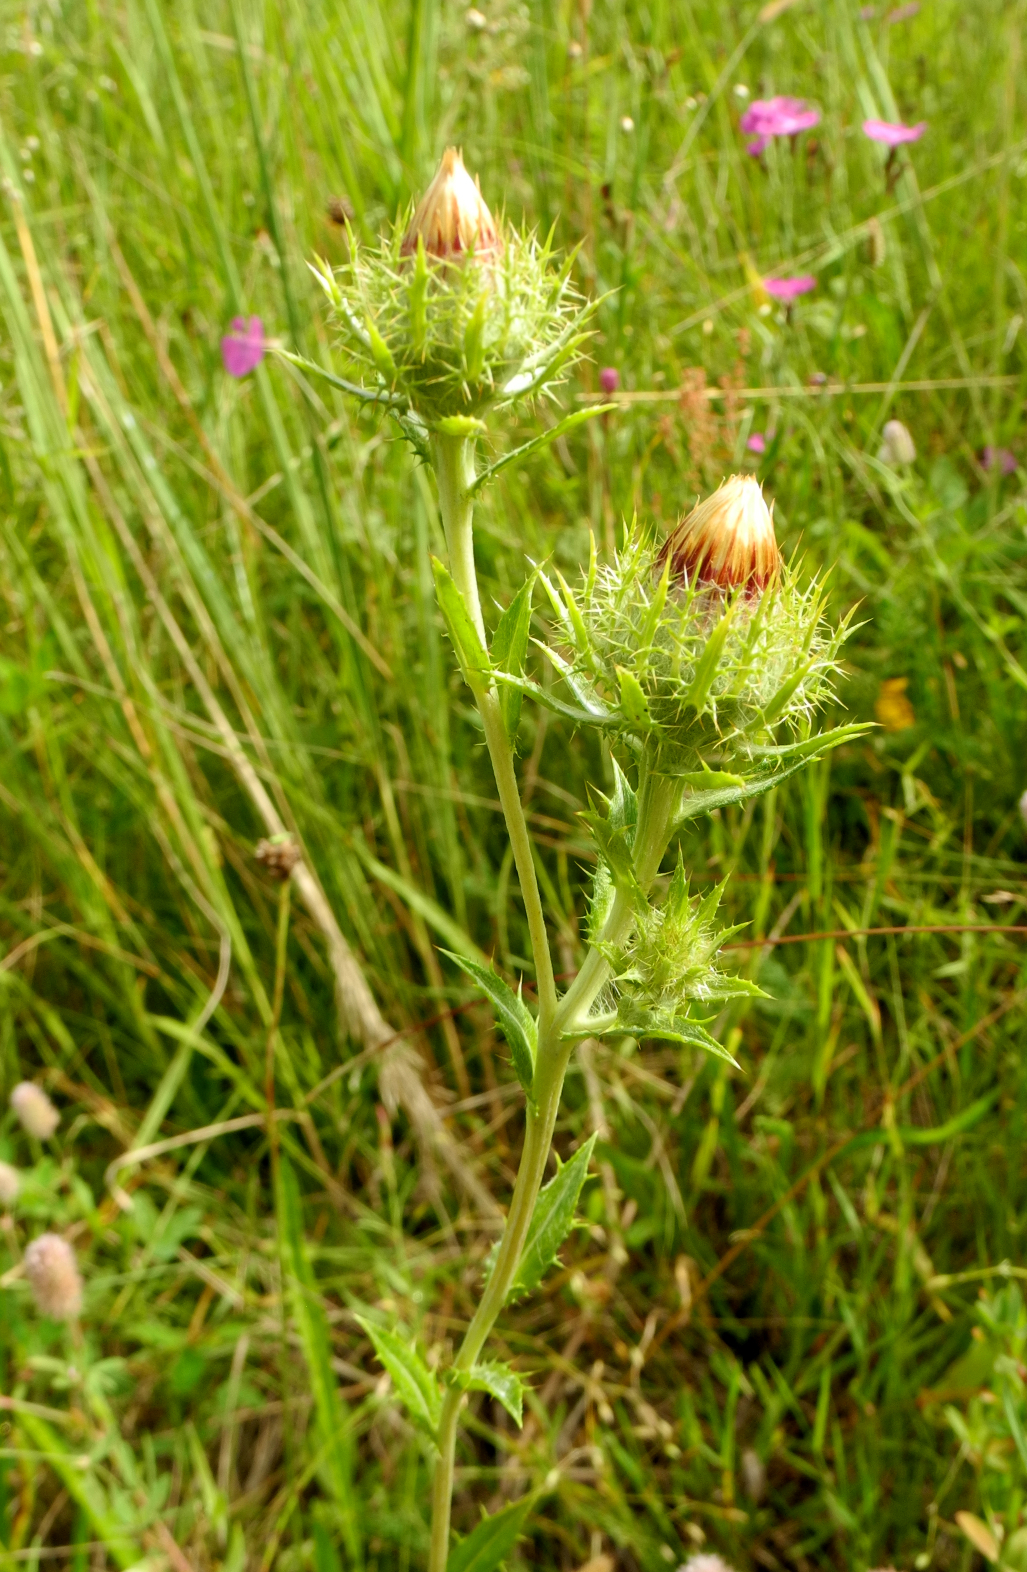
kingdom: Plantae
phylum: Tracheophyta
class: Magnoliopsida
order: Asterales
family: Asteraceae
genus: Carlina
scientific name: Carlina biebersteinii
